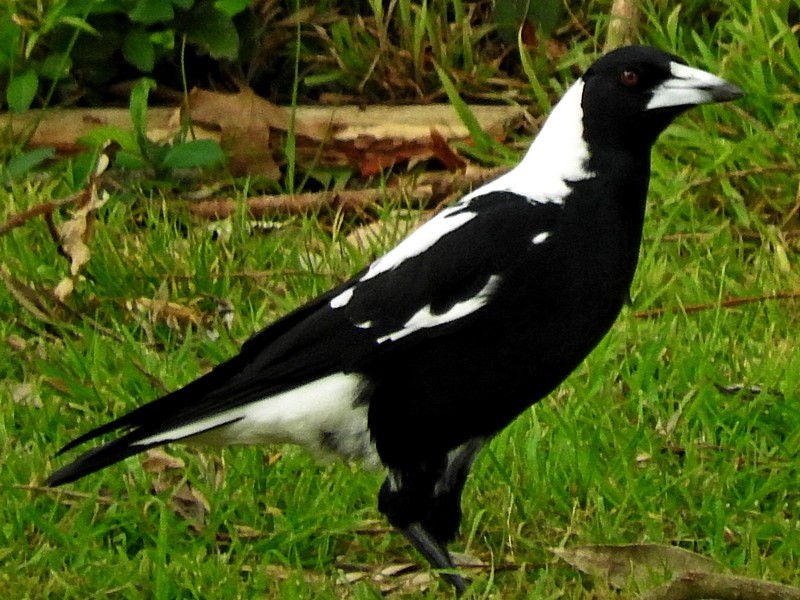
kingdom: Animalia
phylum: Chordata
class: Aves
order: Passeriformes
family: Cracticidae
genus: Gymnorhina
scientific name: Gymnorhina tibicen
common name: Australian magpie
